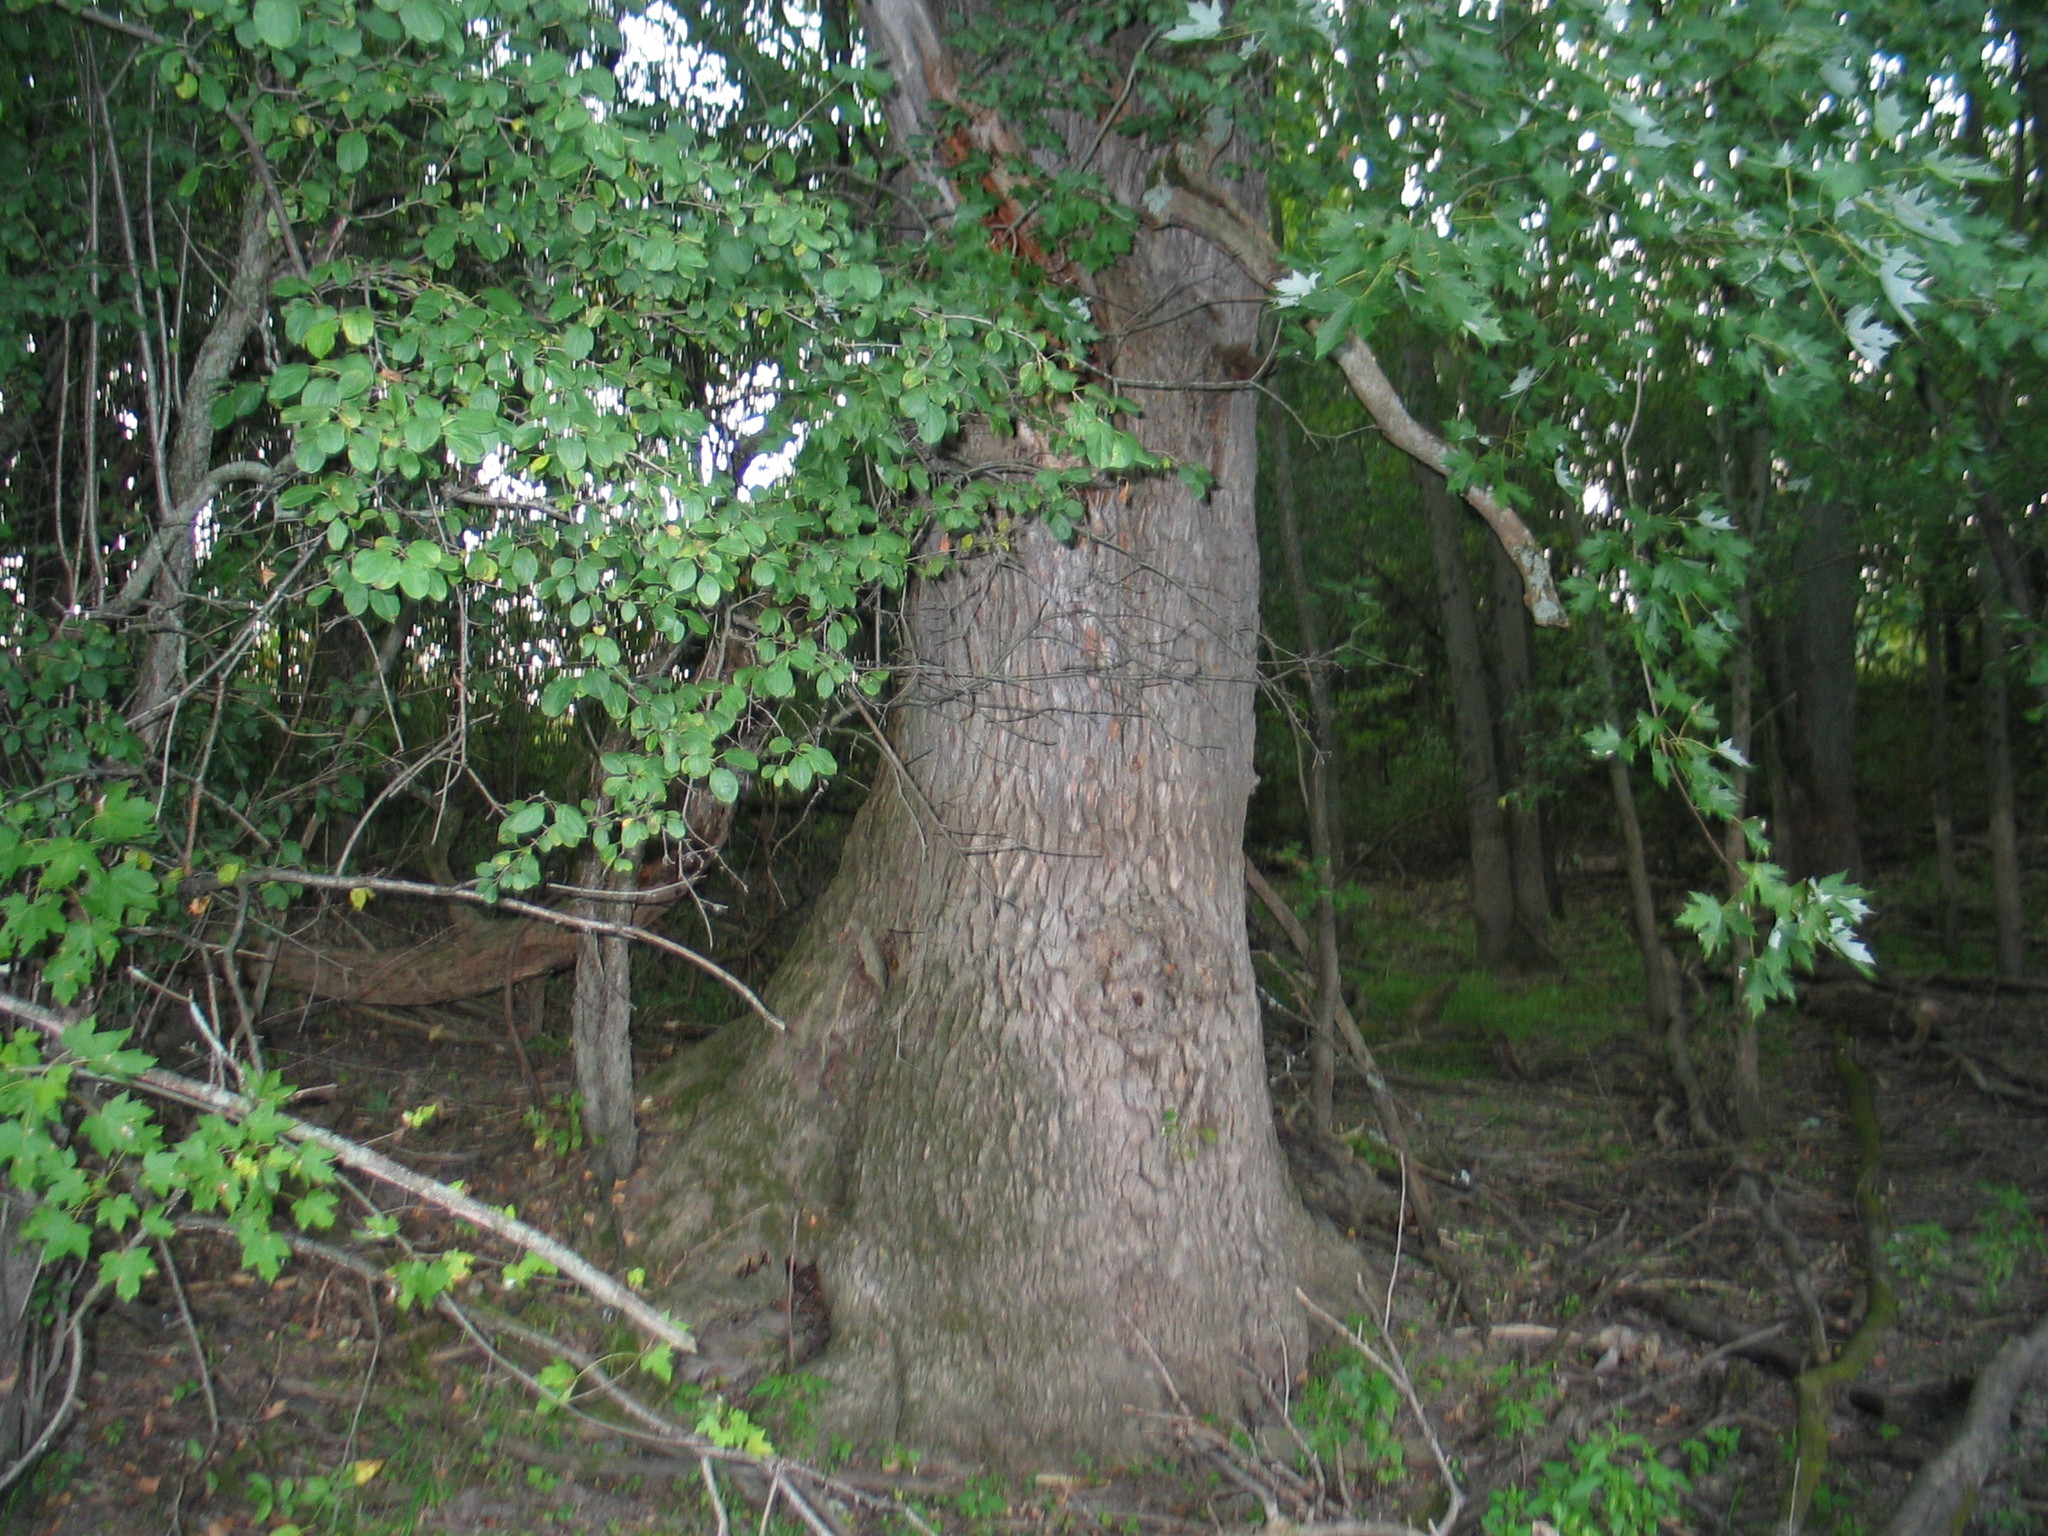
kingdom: Plantae
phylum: Tracheophyta
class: Magnoliopsida
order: Rosales
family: Rhamnaceae
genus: Rhamnus
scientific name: Rhamnus cathartica
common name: Common buckthorn
